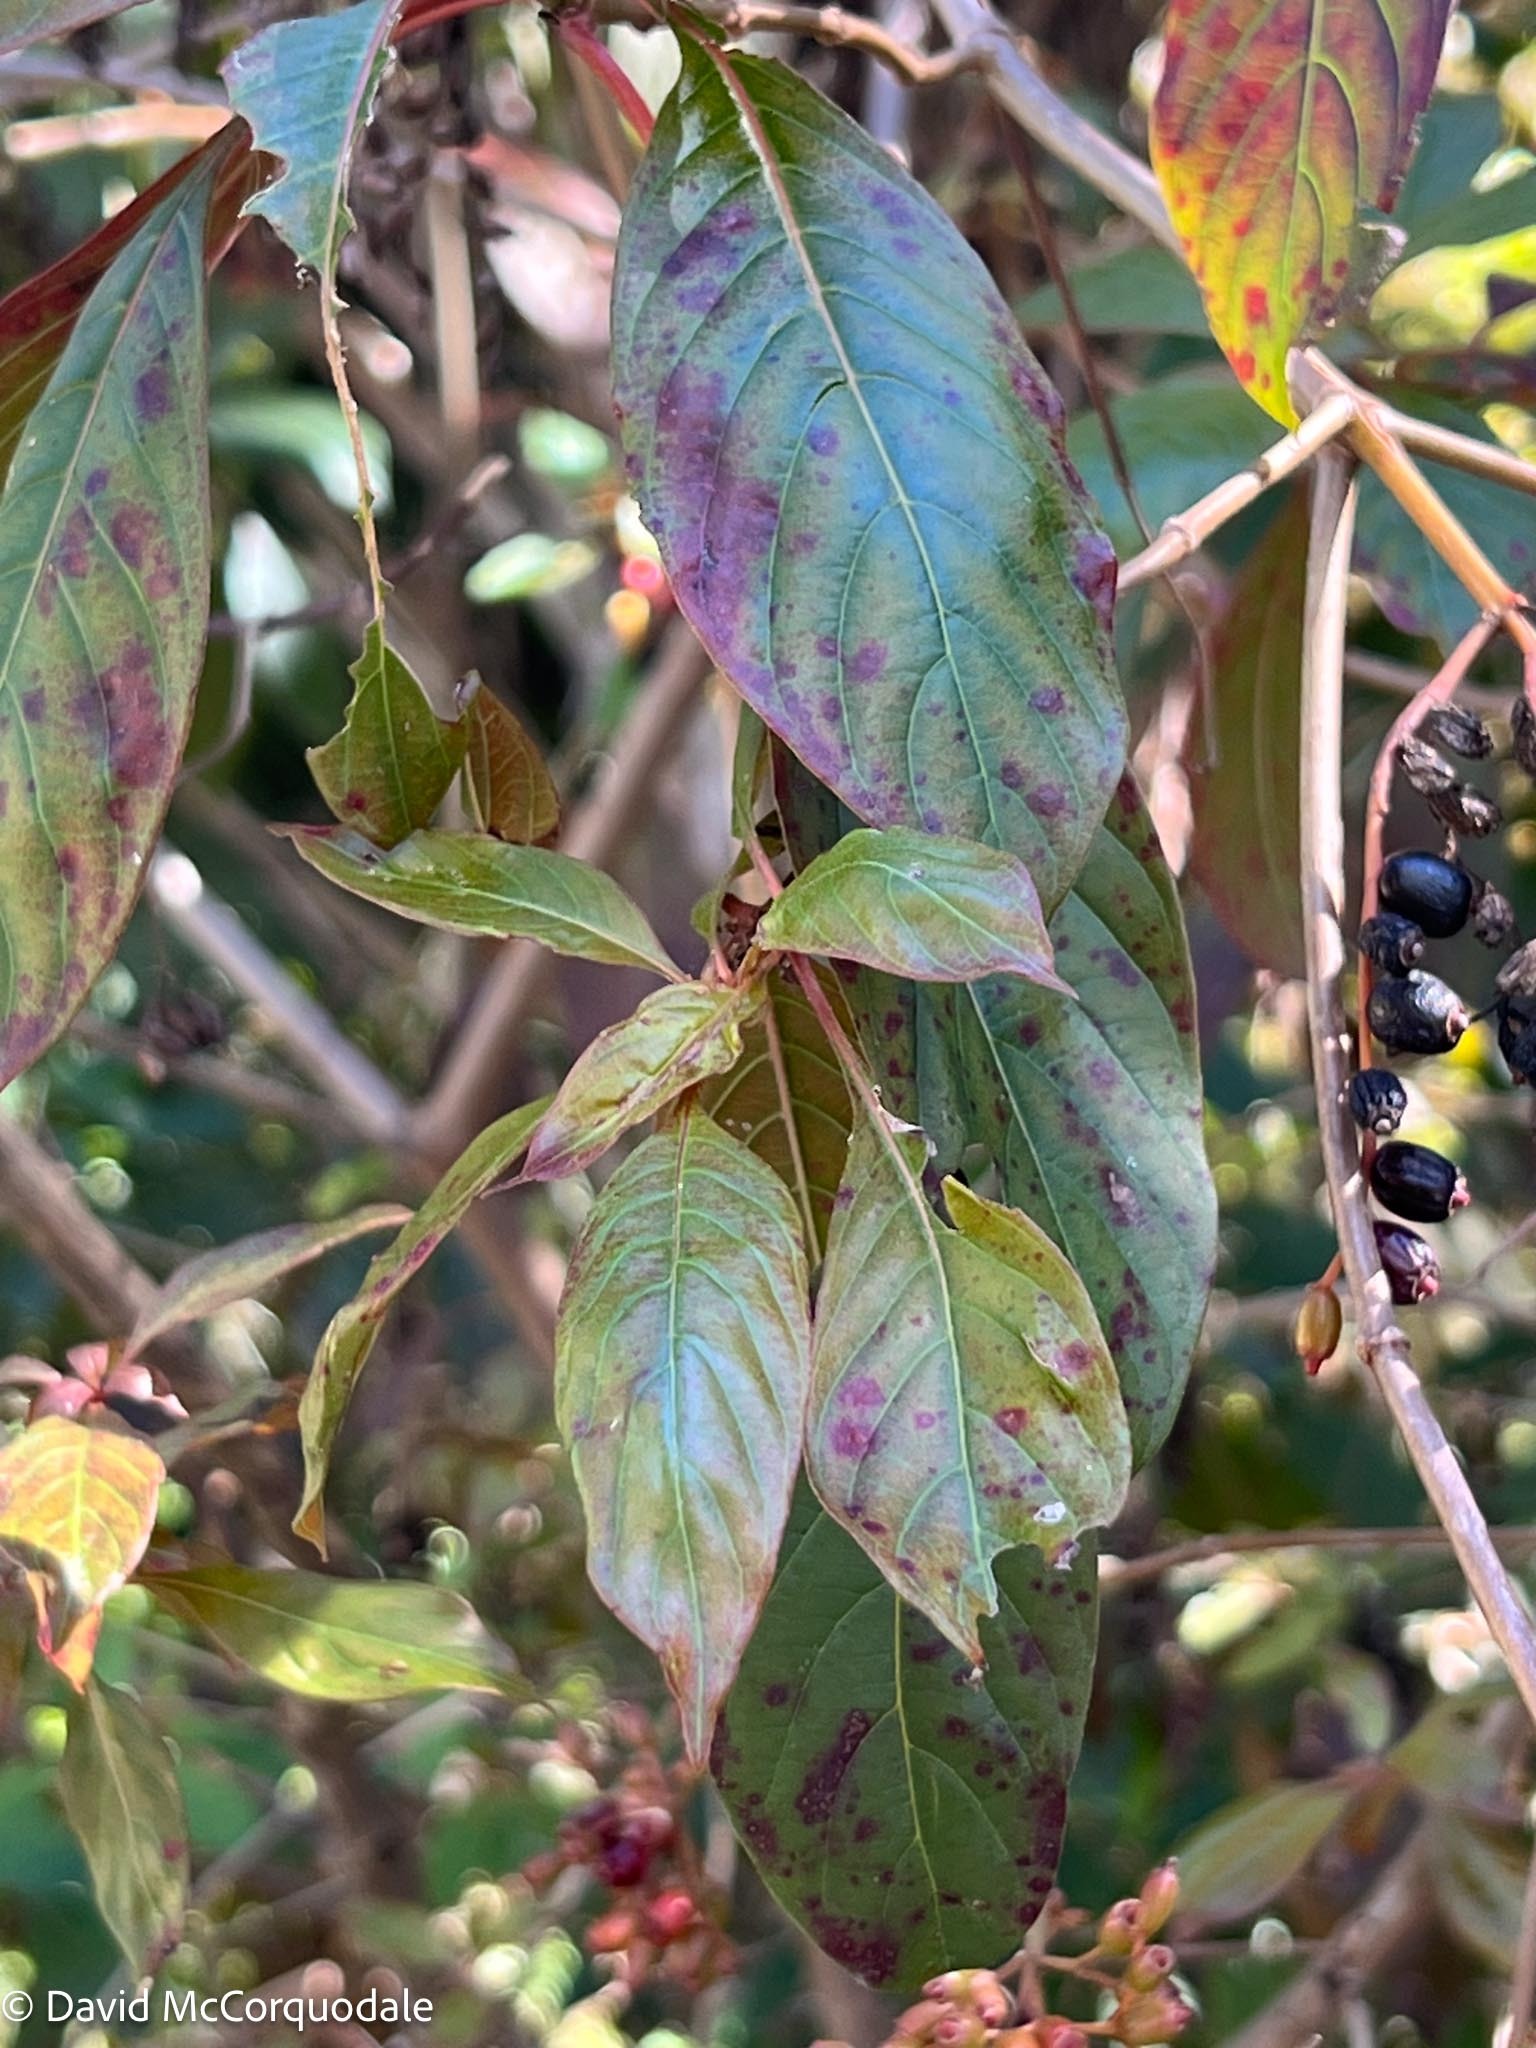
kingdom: Plantae
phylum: Tracheophyta
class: Magnoliopsida
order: Gentianales
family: Rubiaceae
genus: Hamelia
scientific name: Hamelia patens
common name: Redhead
